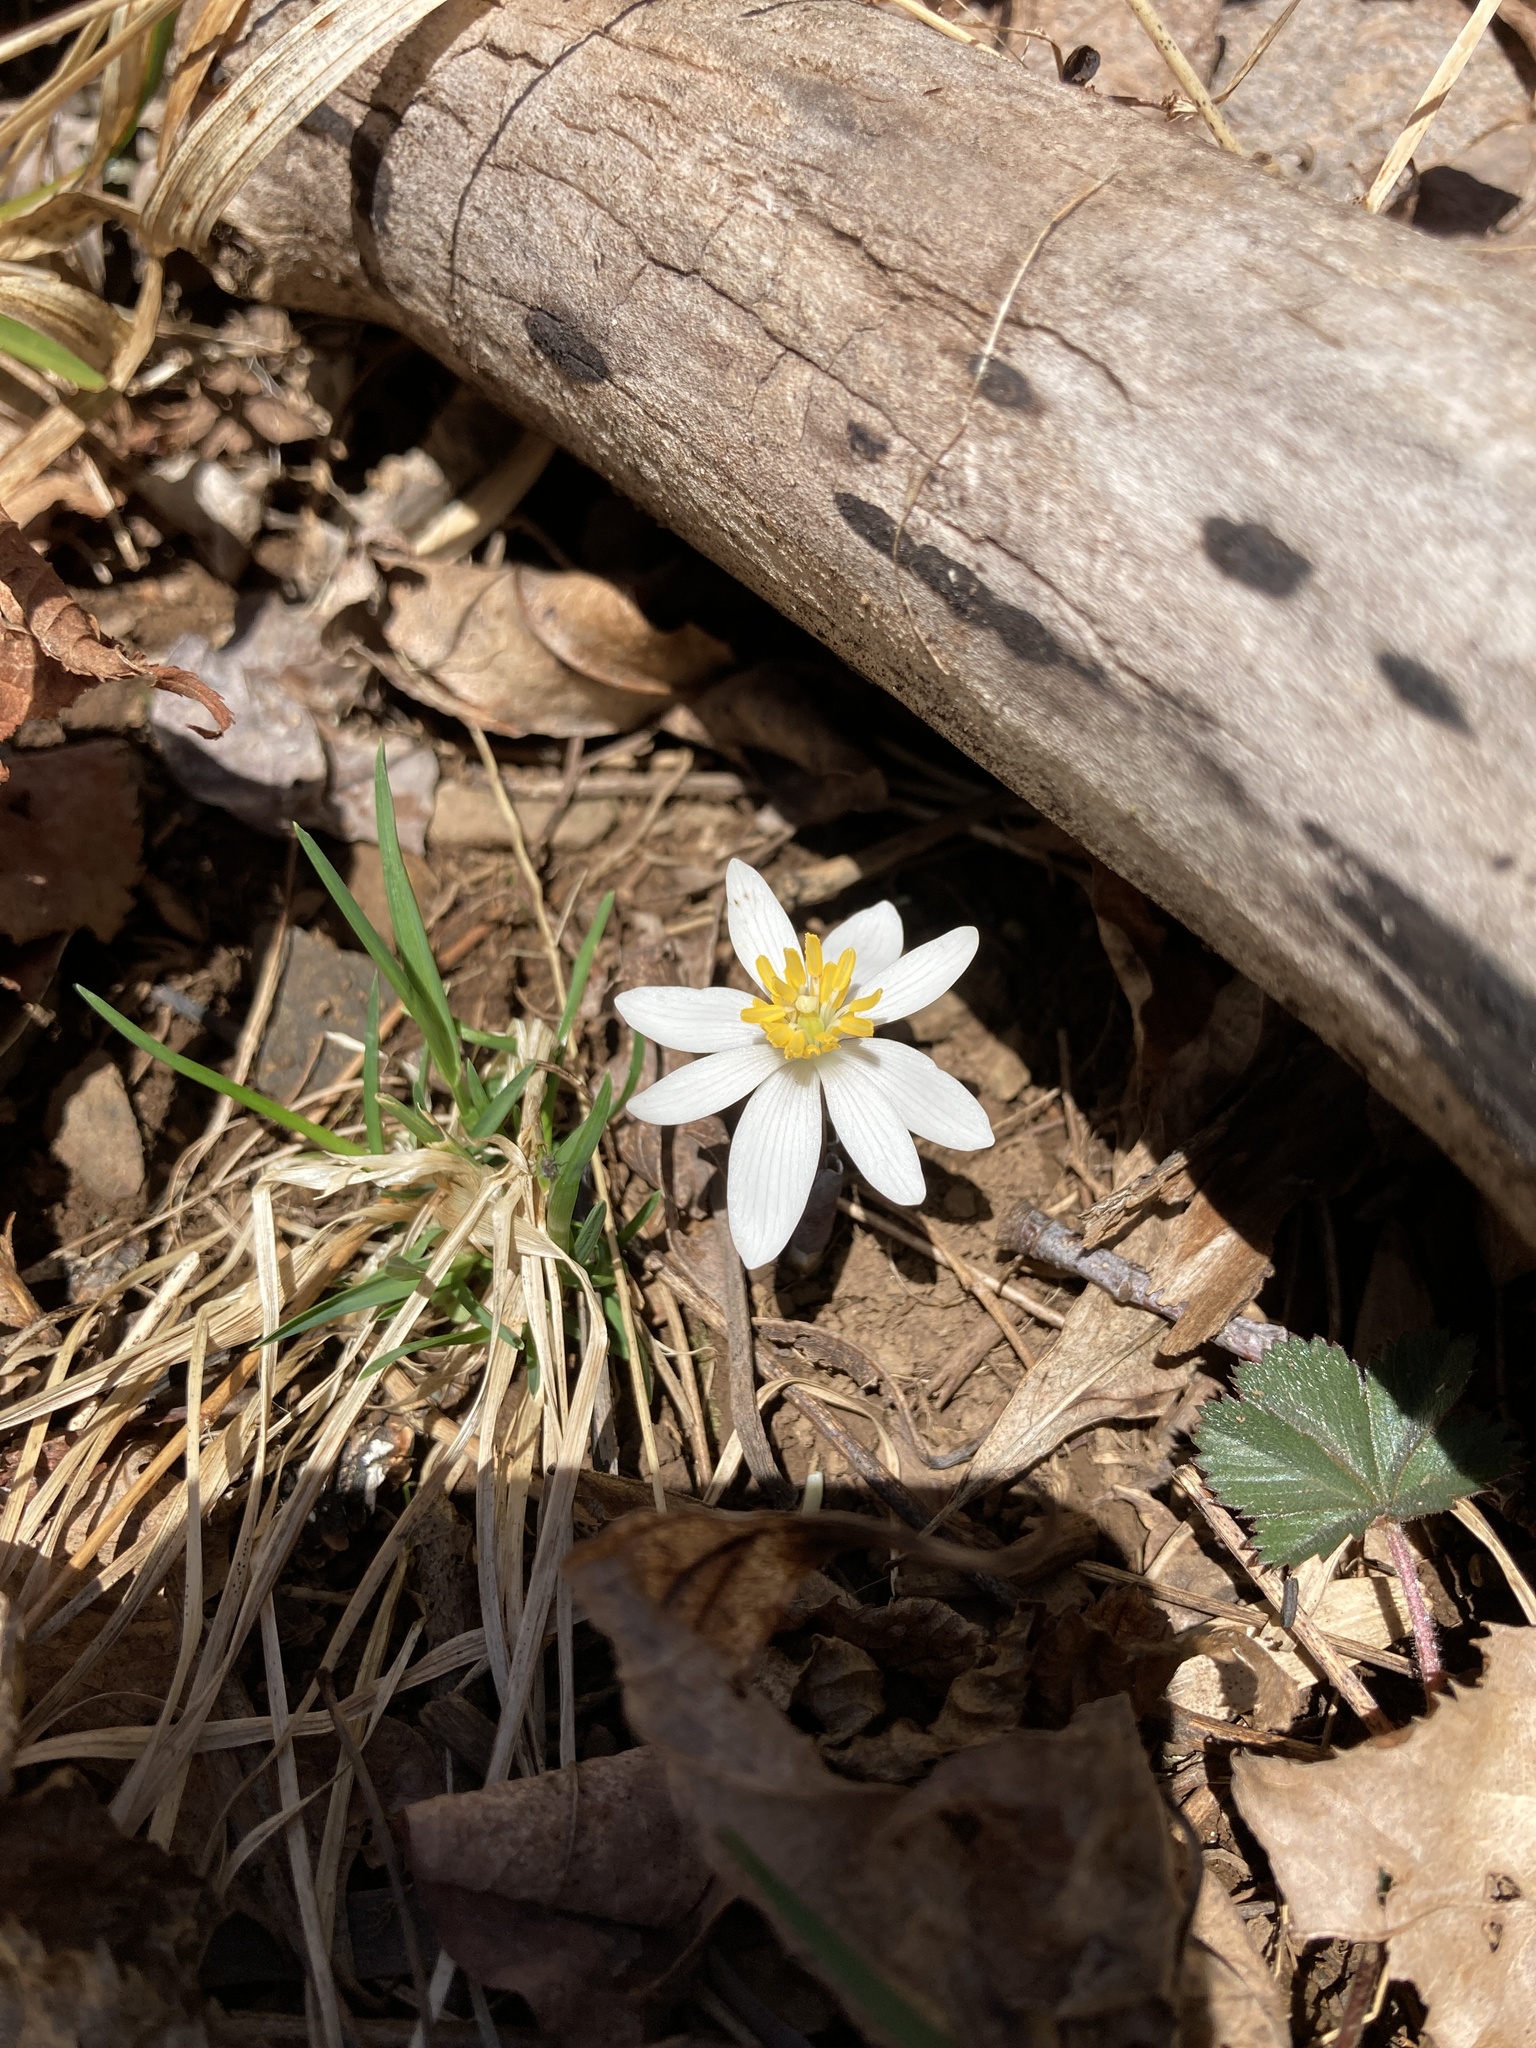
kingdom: Plantae
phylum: Tracheophyta
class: Magnoliopsida
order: Ranunculales
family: Papaveraceae
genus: Sanguinaria
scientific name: Sanguinaria canadensis
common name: Bloodroot
